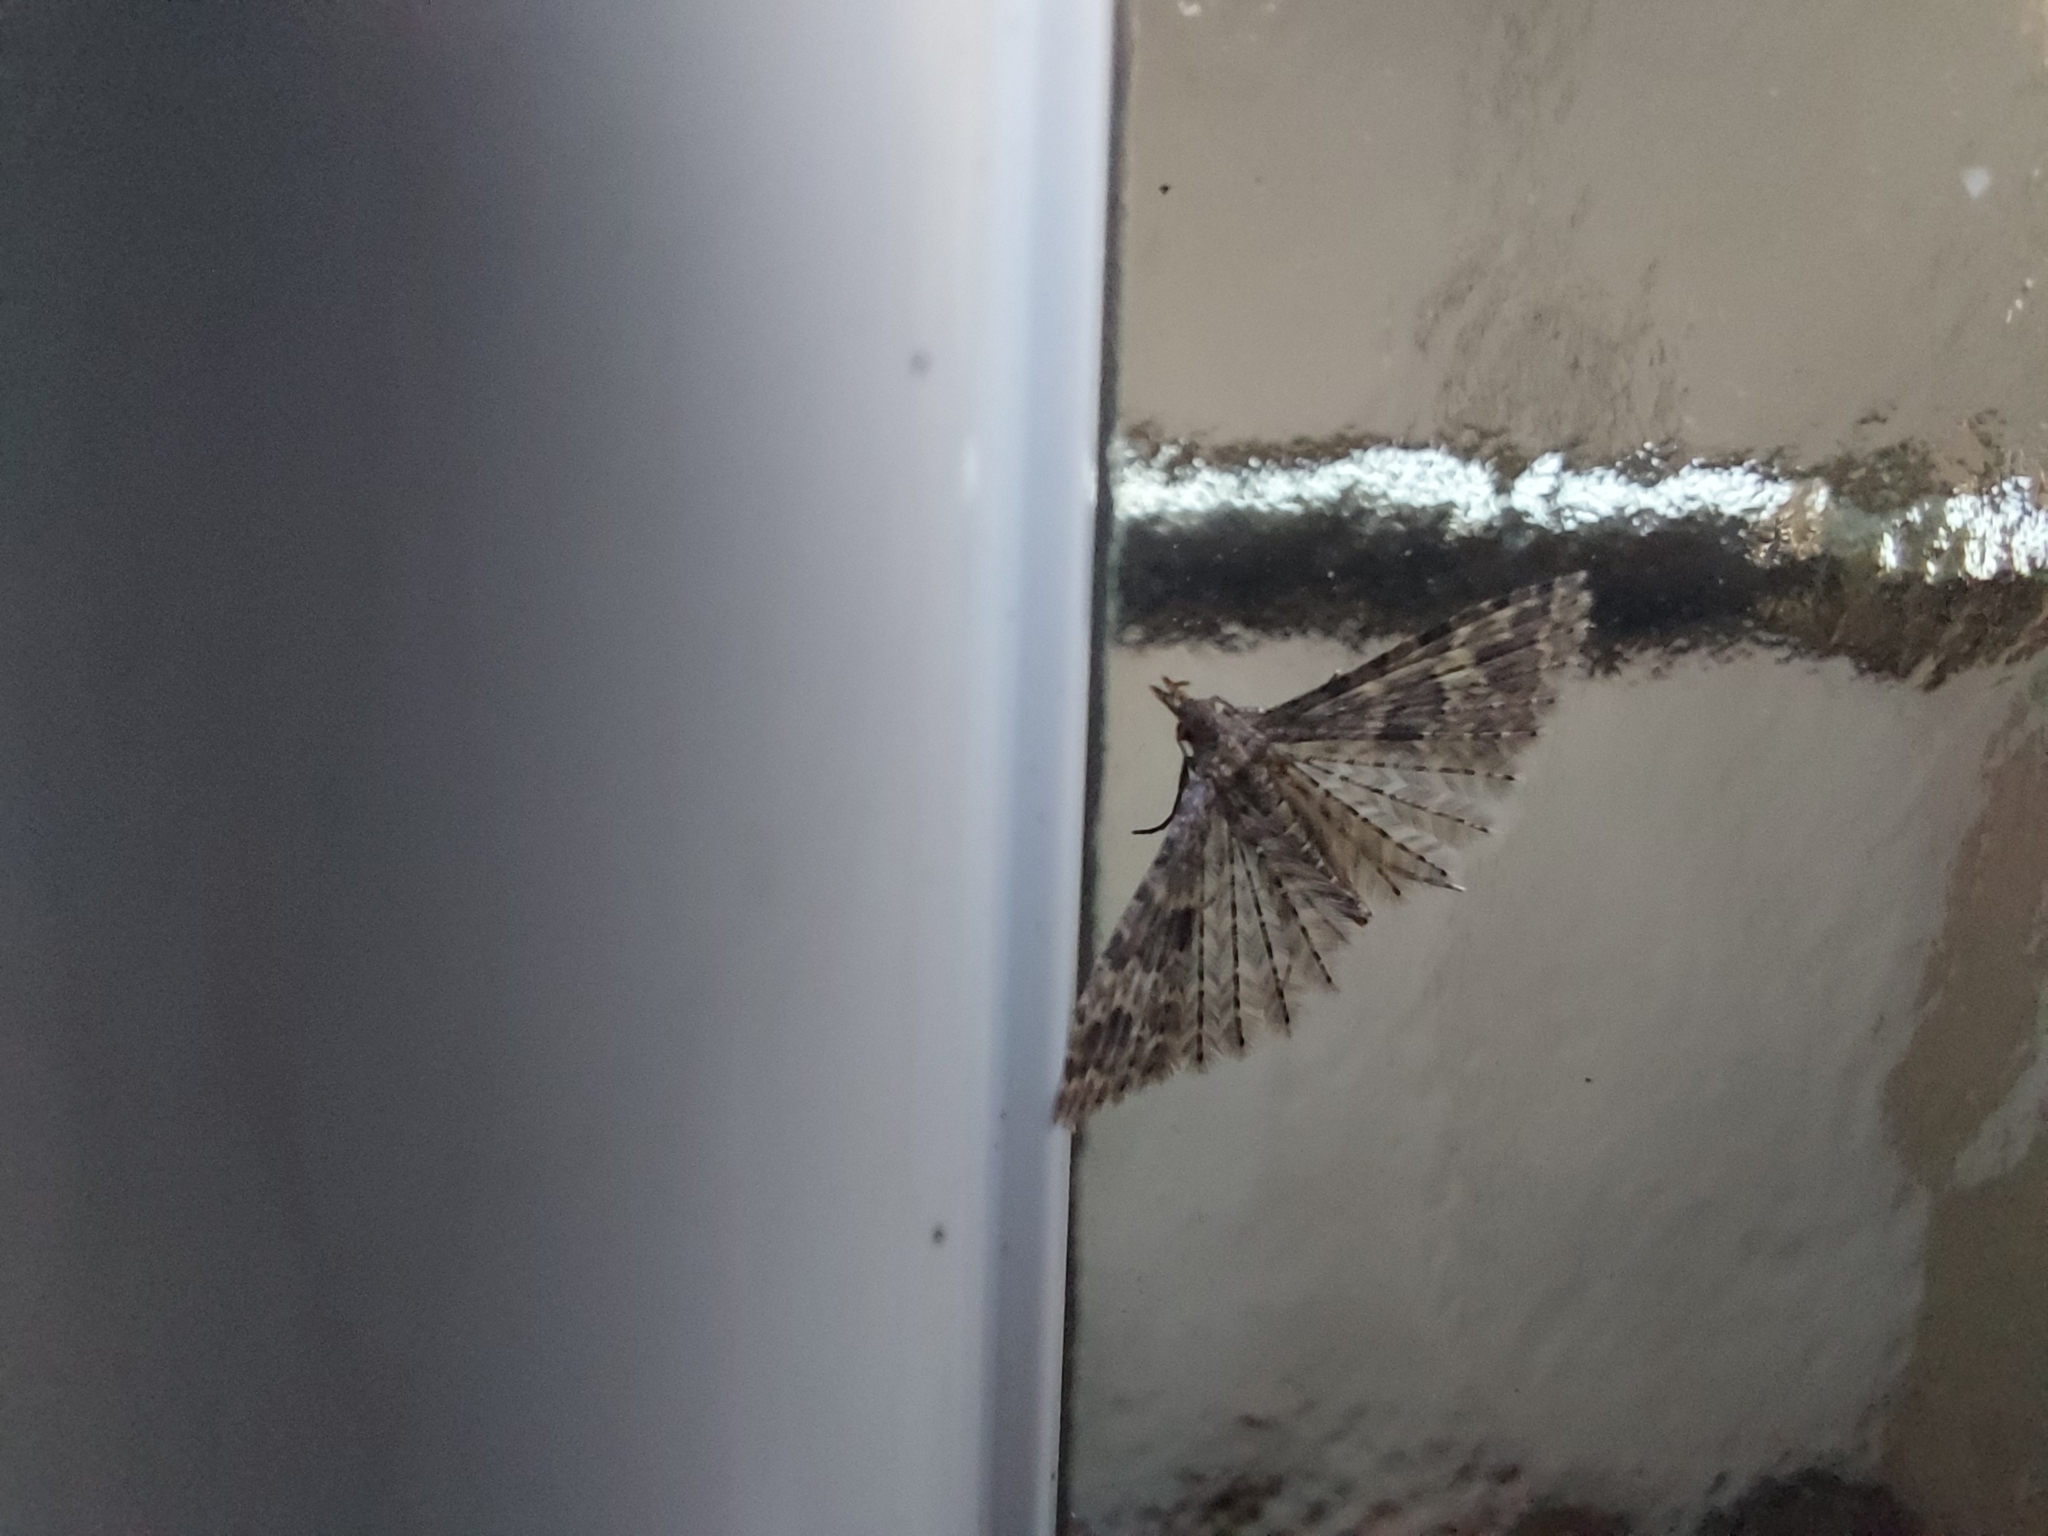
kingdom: Animalia
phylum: Arthropoda
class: Insecta
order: Lepidoptera
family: Alucitidae
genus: Alucita
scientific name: Alucita hexadactyla
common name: Twenty-plume moth
